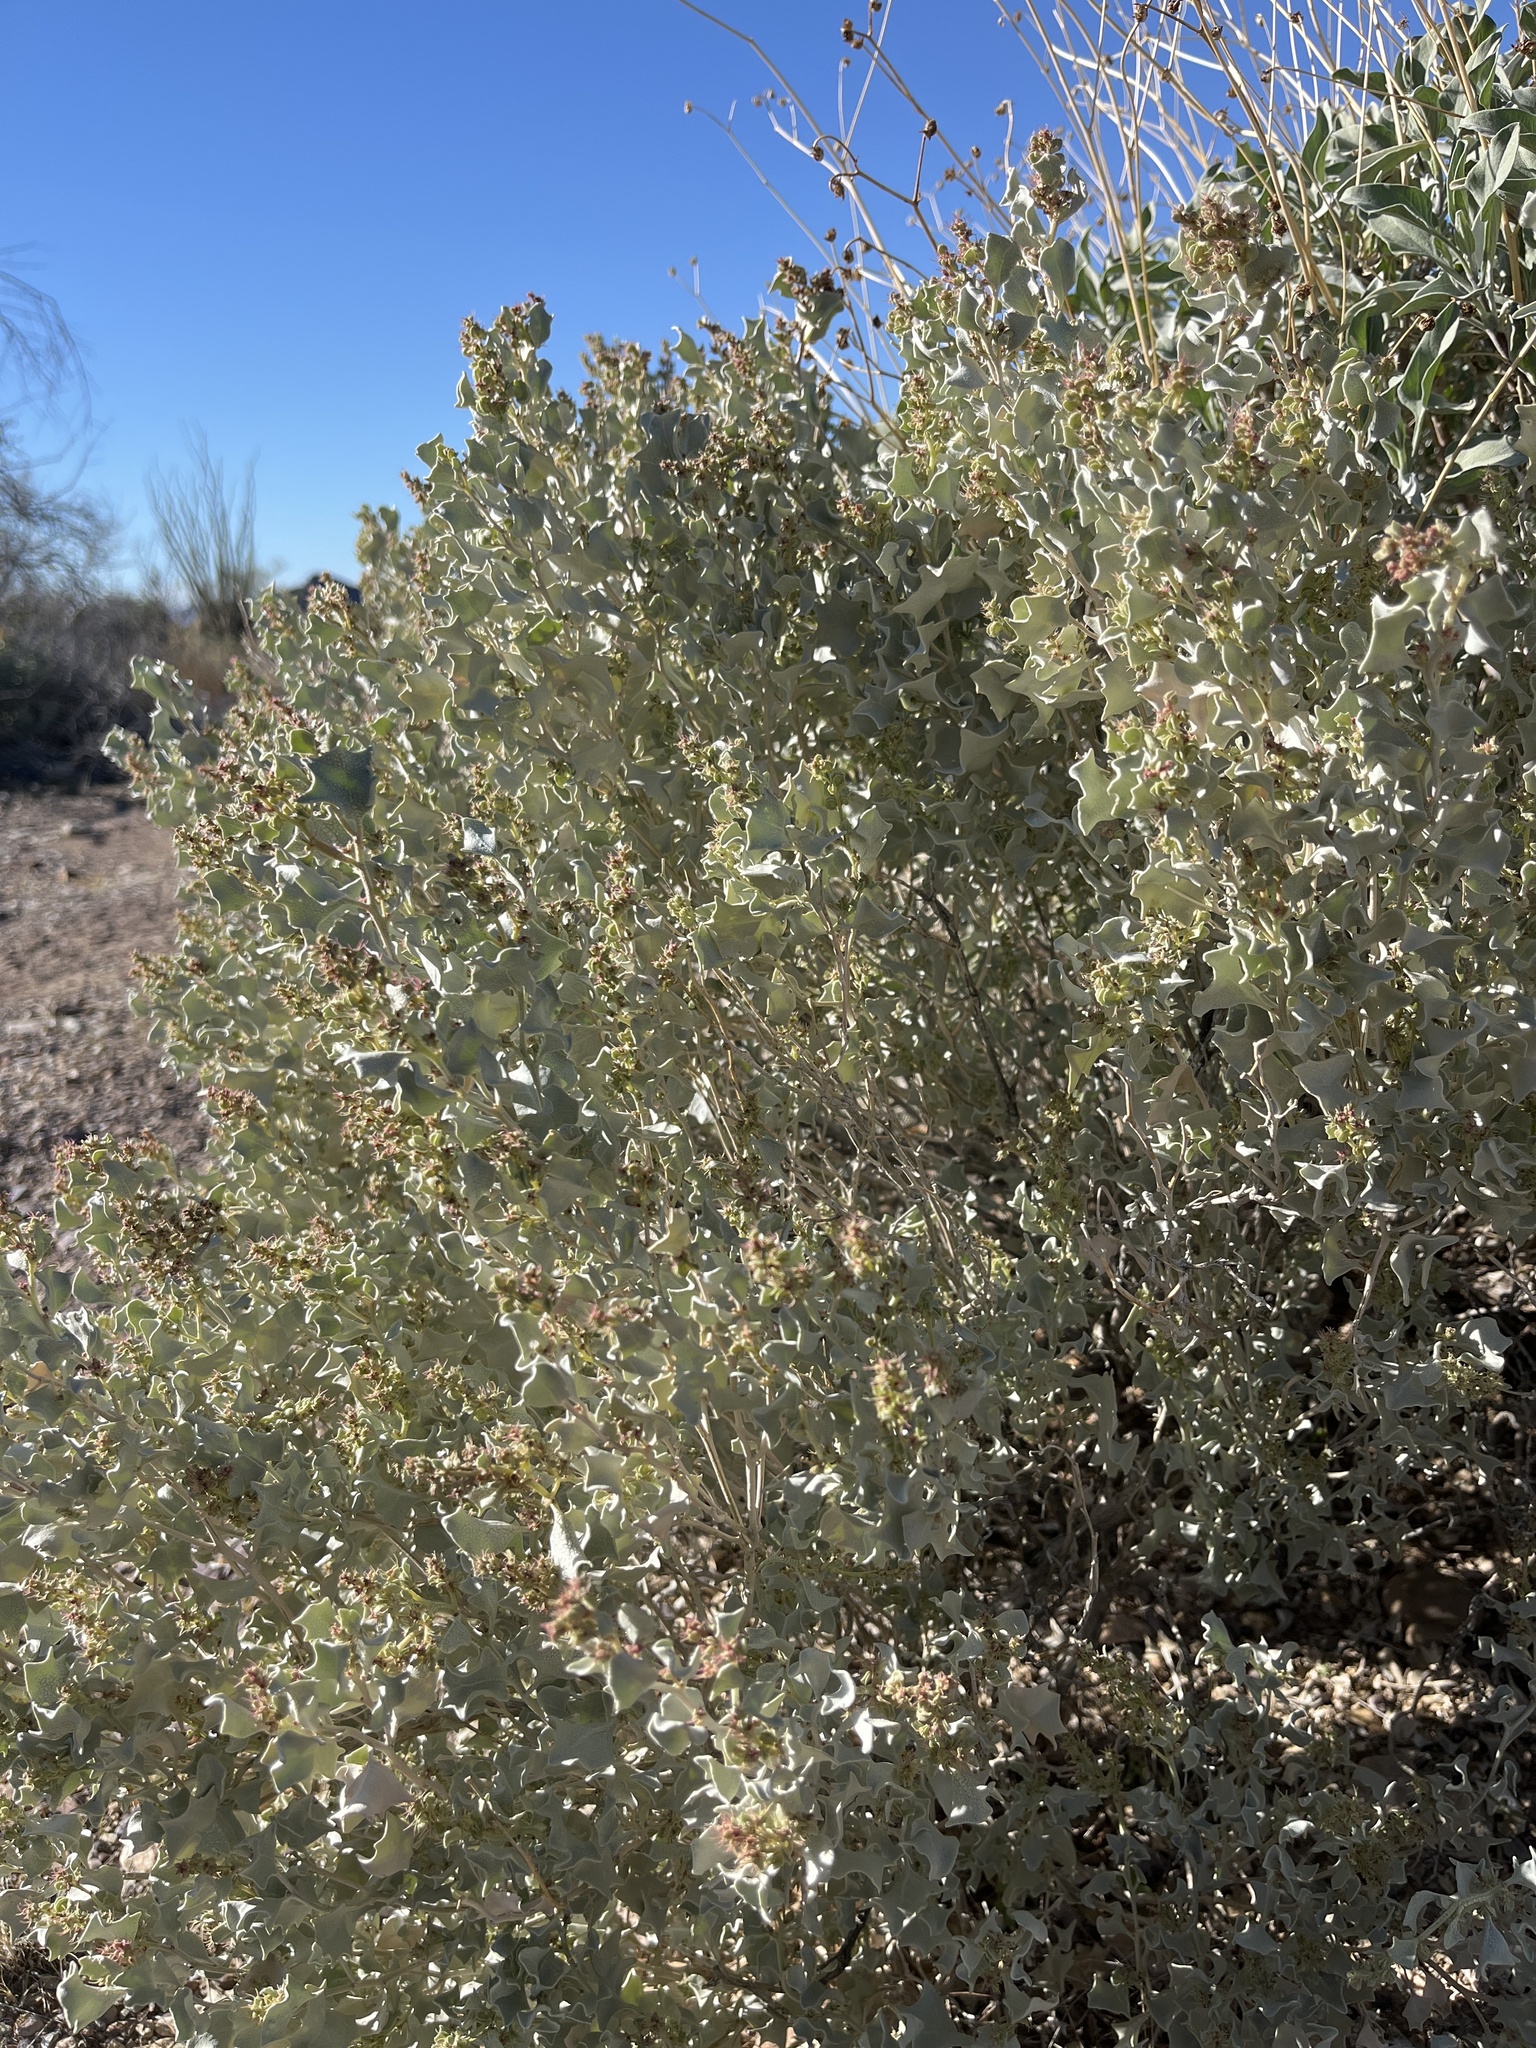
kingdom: Plantae
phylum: Tracheophyta
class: Magnoliopsida
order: Caryophyllales
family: Amaranthaceae
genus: Atriplex
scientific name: Atriplex hymenelytra
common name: Desert-holly
